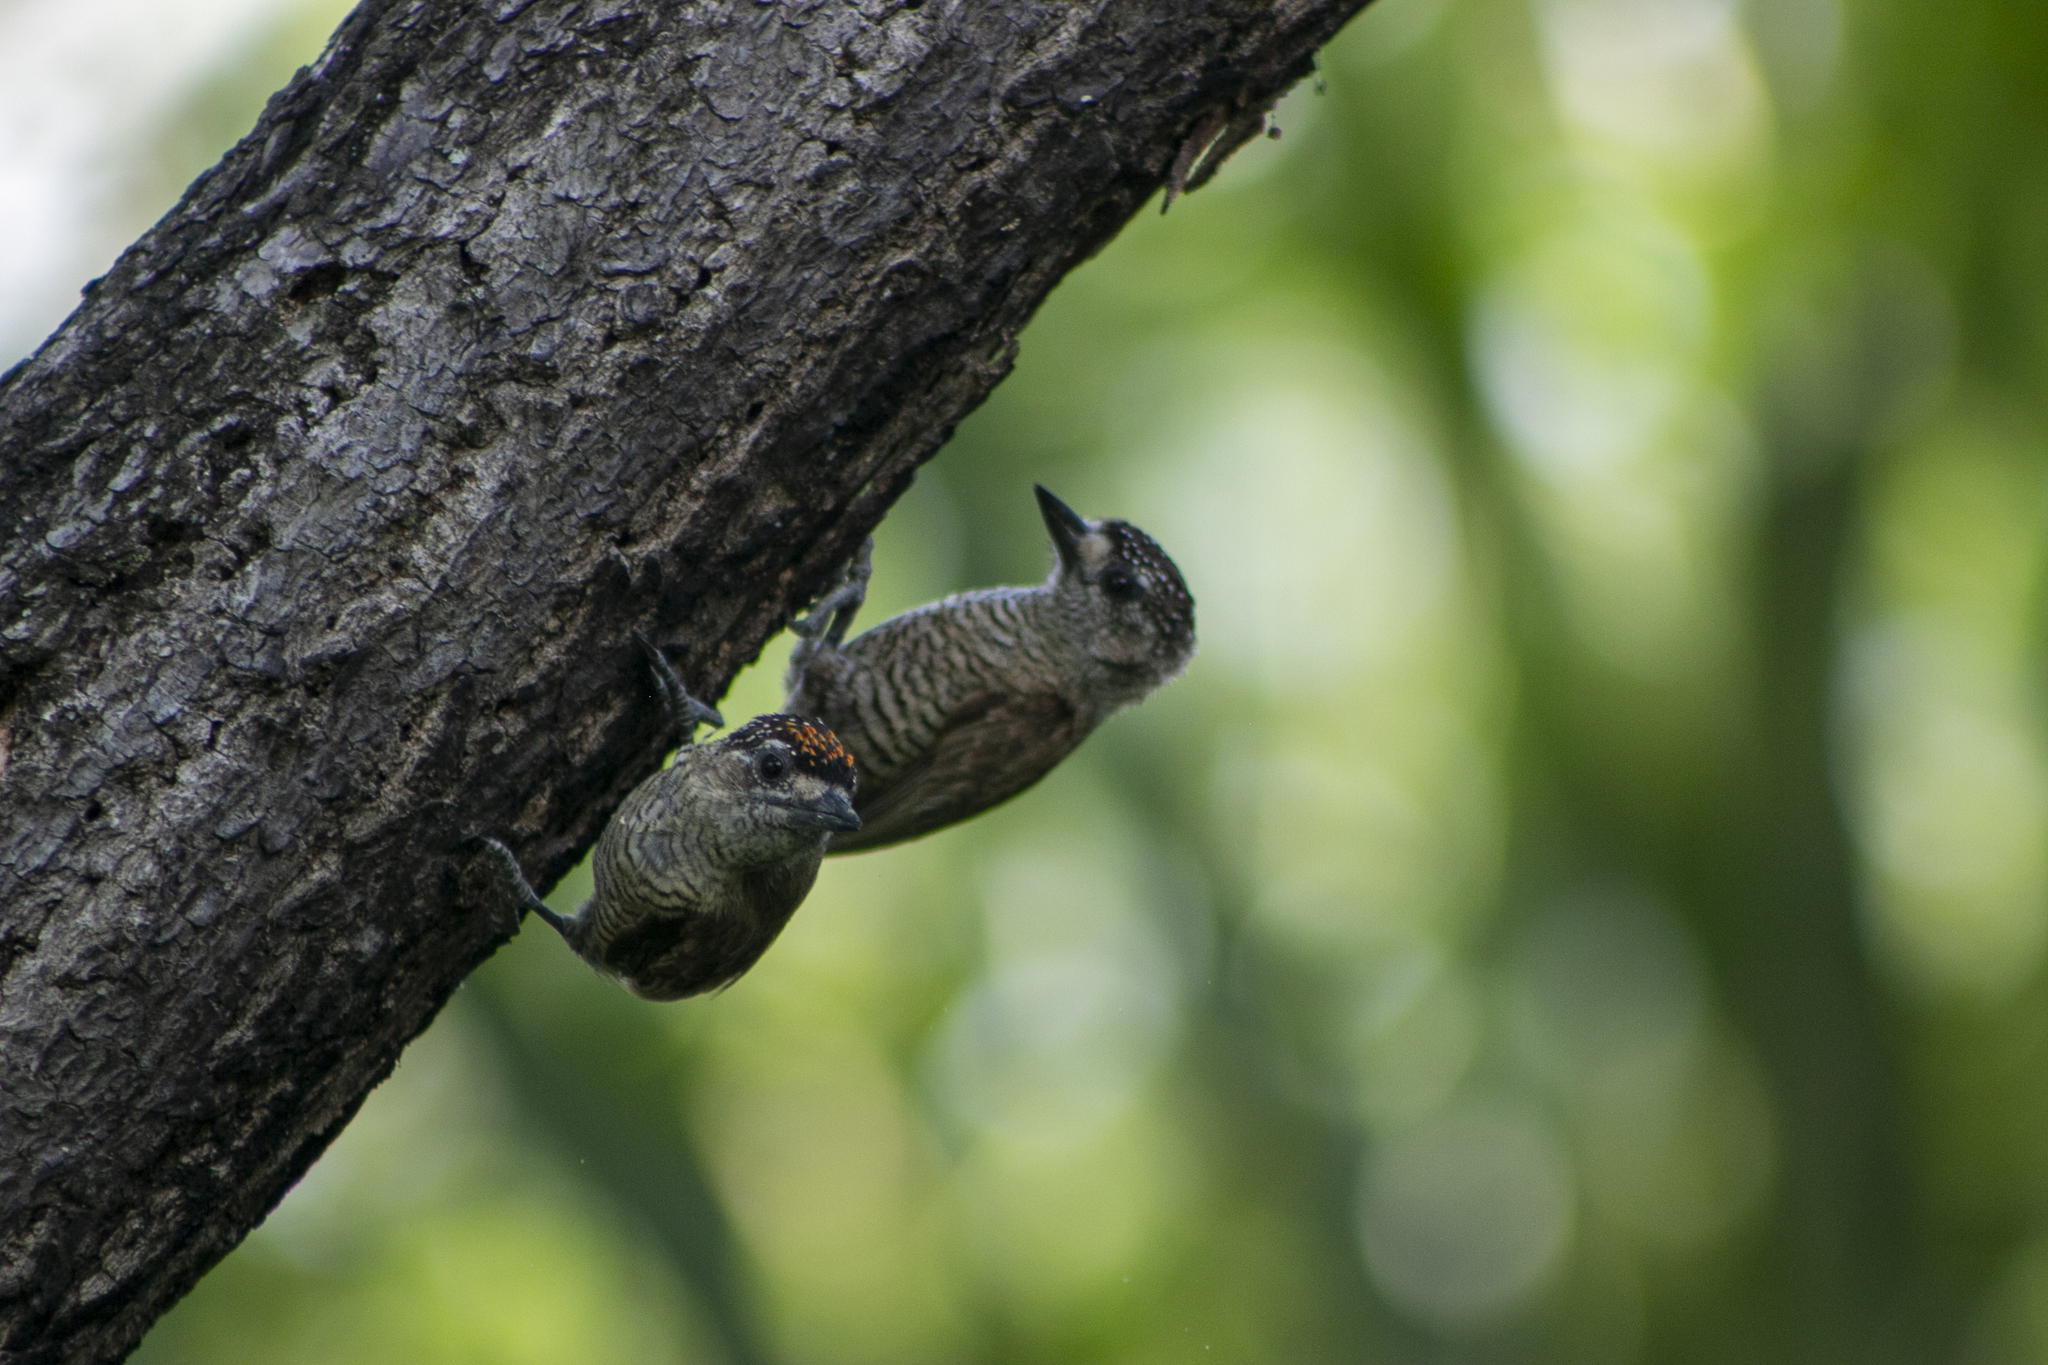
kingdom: Animalia
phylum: Chordata
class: Aves
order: Piciformes
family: Picidae
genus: Picumnus
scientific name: Picumnus exilis
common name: Golden-spangled piculet
